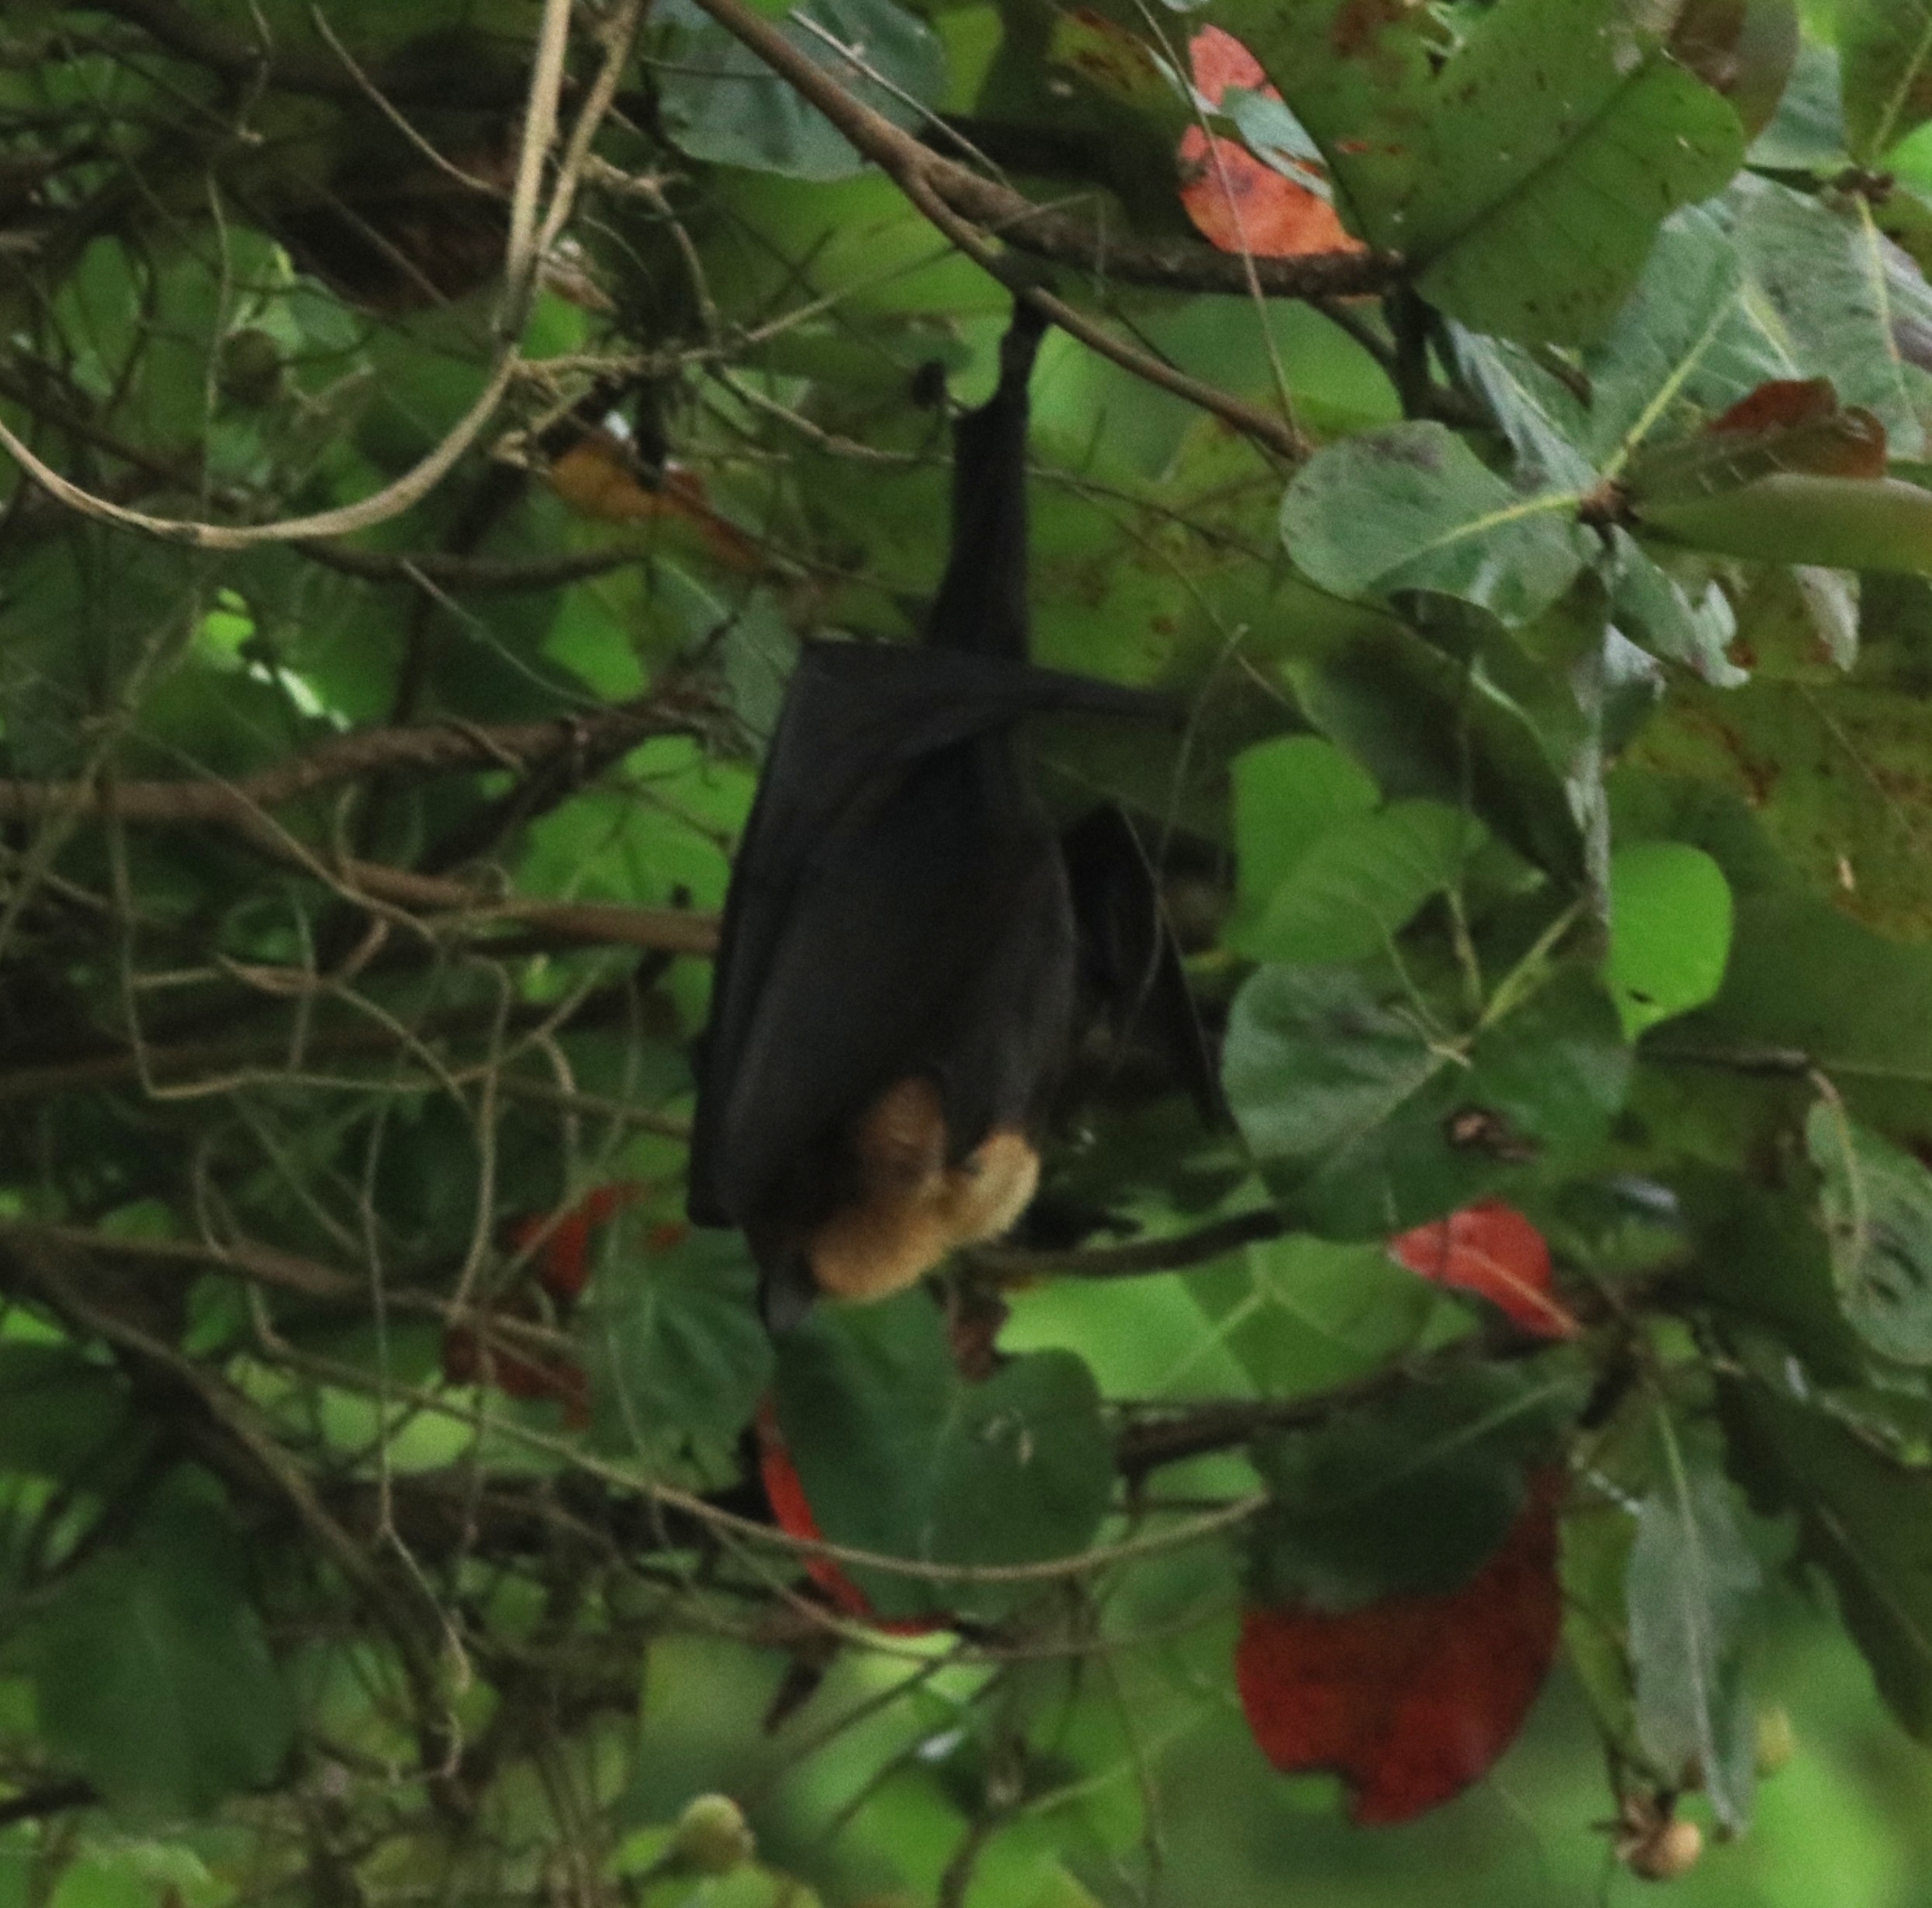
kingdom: Animalia
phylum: Chordata
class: Mammalia
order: Chiroptera
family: Pteropodidae
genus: Pteropus
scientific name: Pteropus vampyrus
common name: Large flying fox
